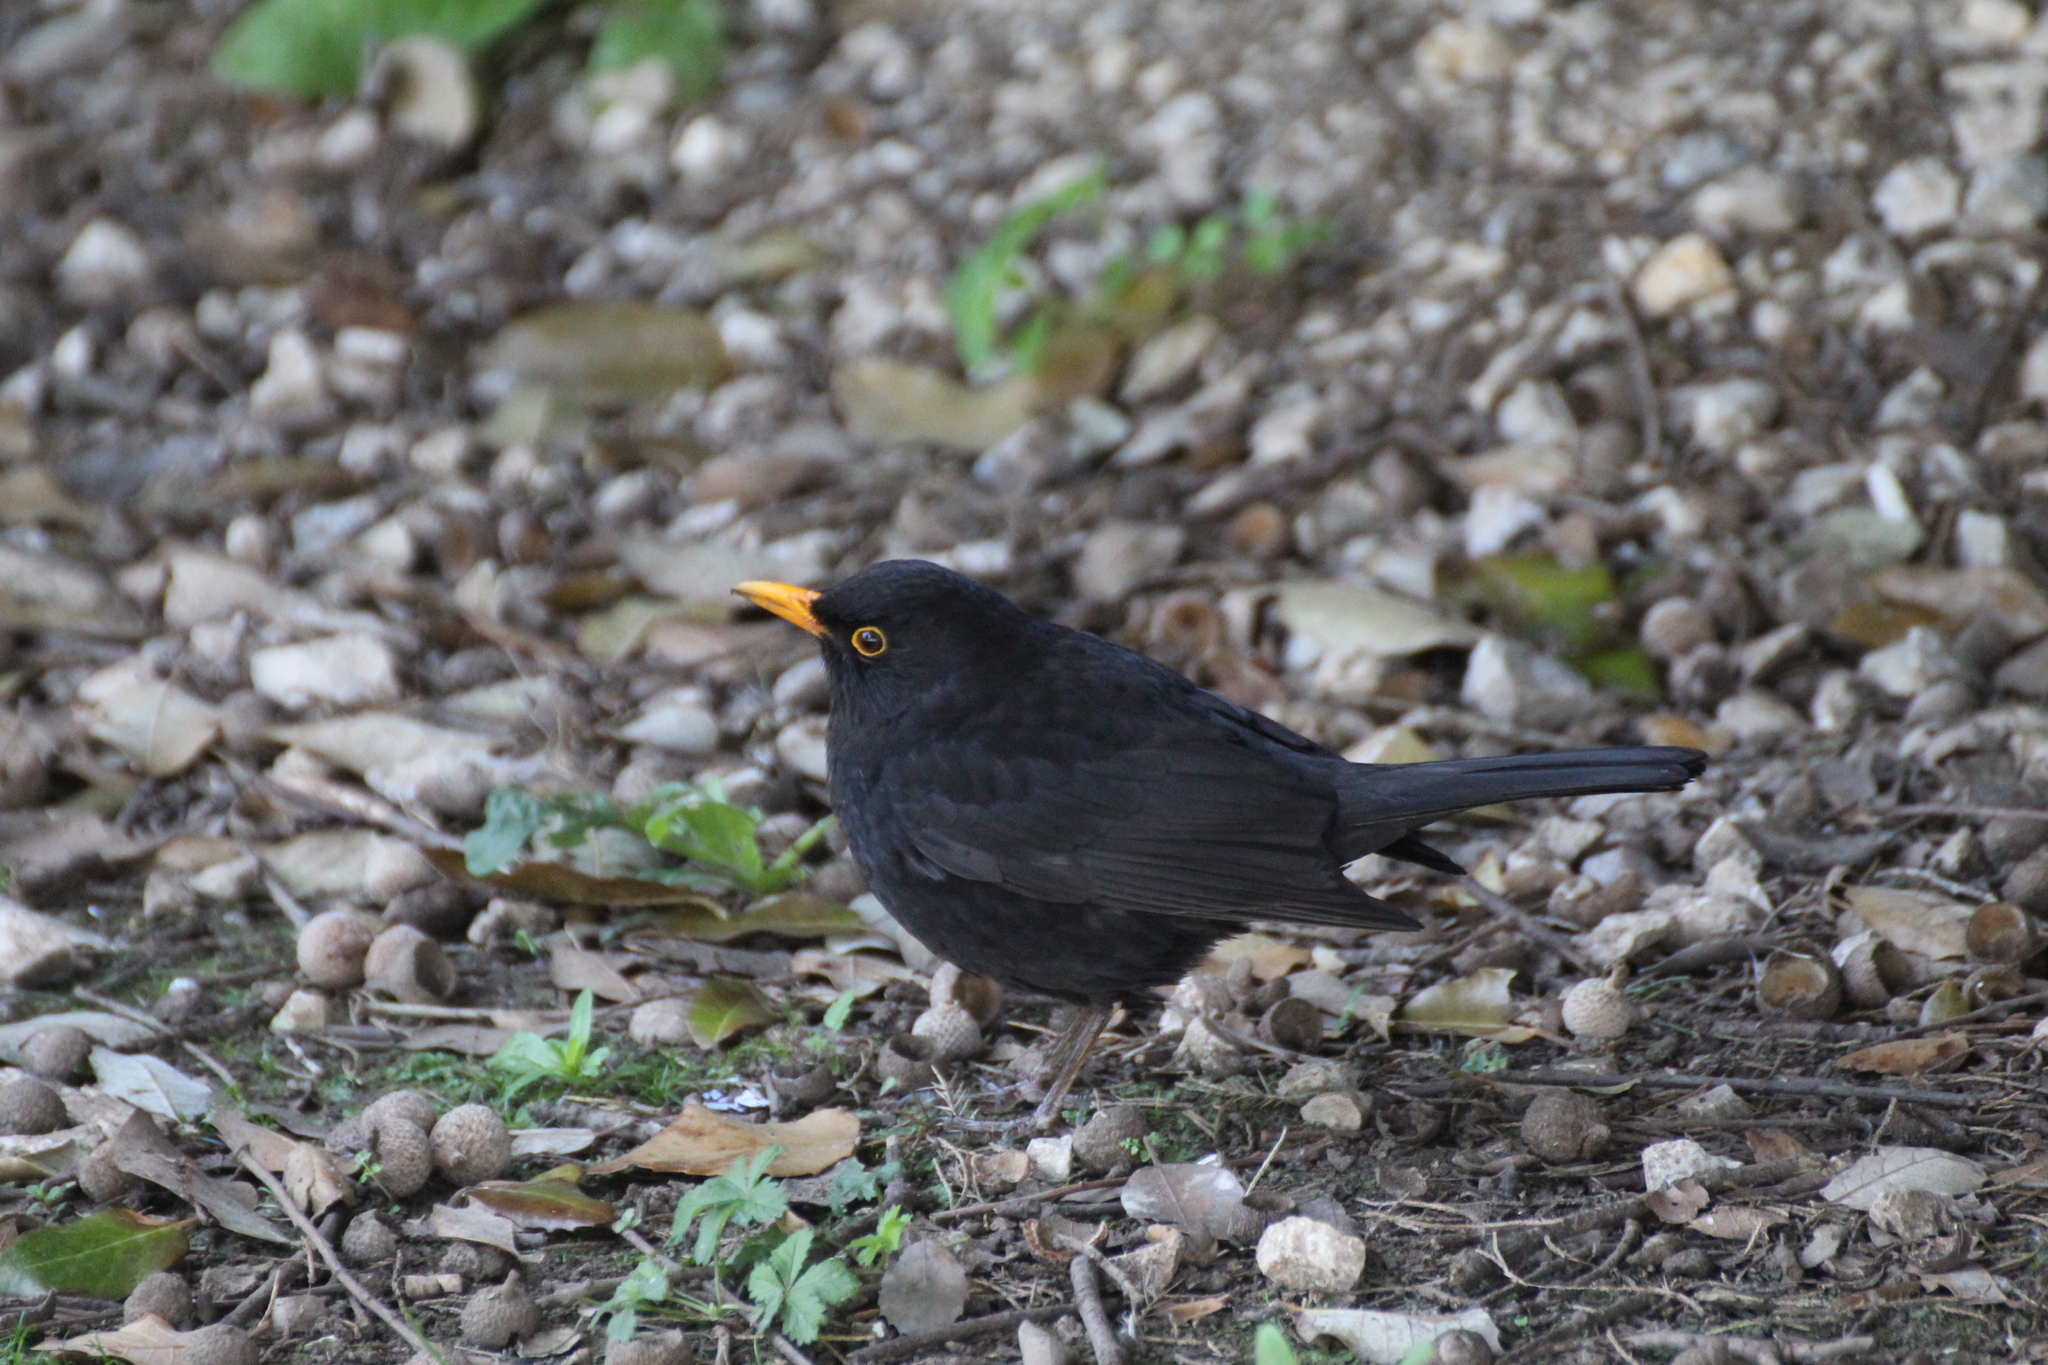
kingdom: Animalia
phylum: Chordata
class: Aves
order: Passeriformes
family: Turdidae
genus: Turdus
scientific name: Turdus merula
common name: Common blackbird
